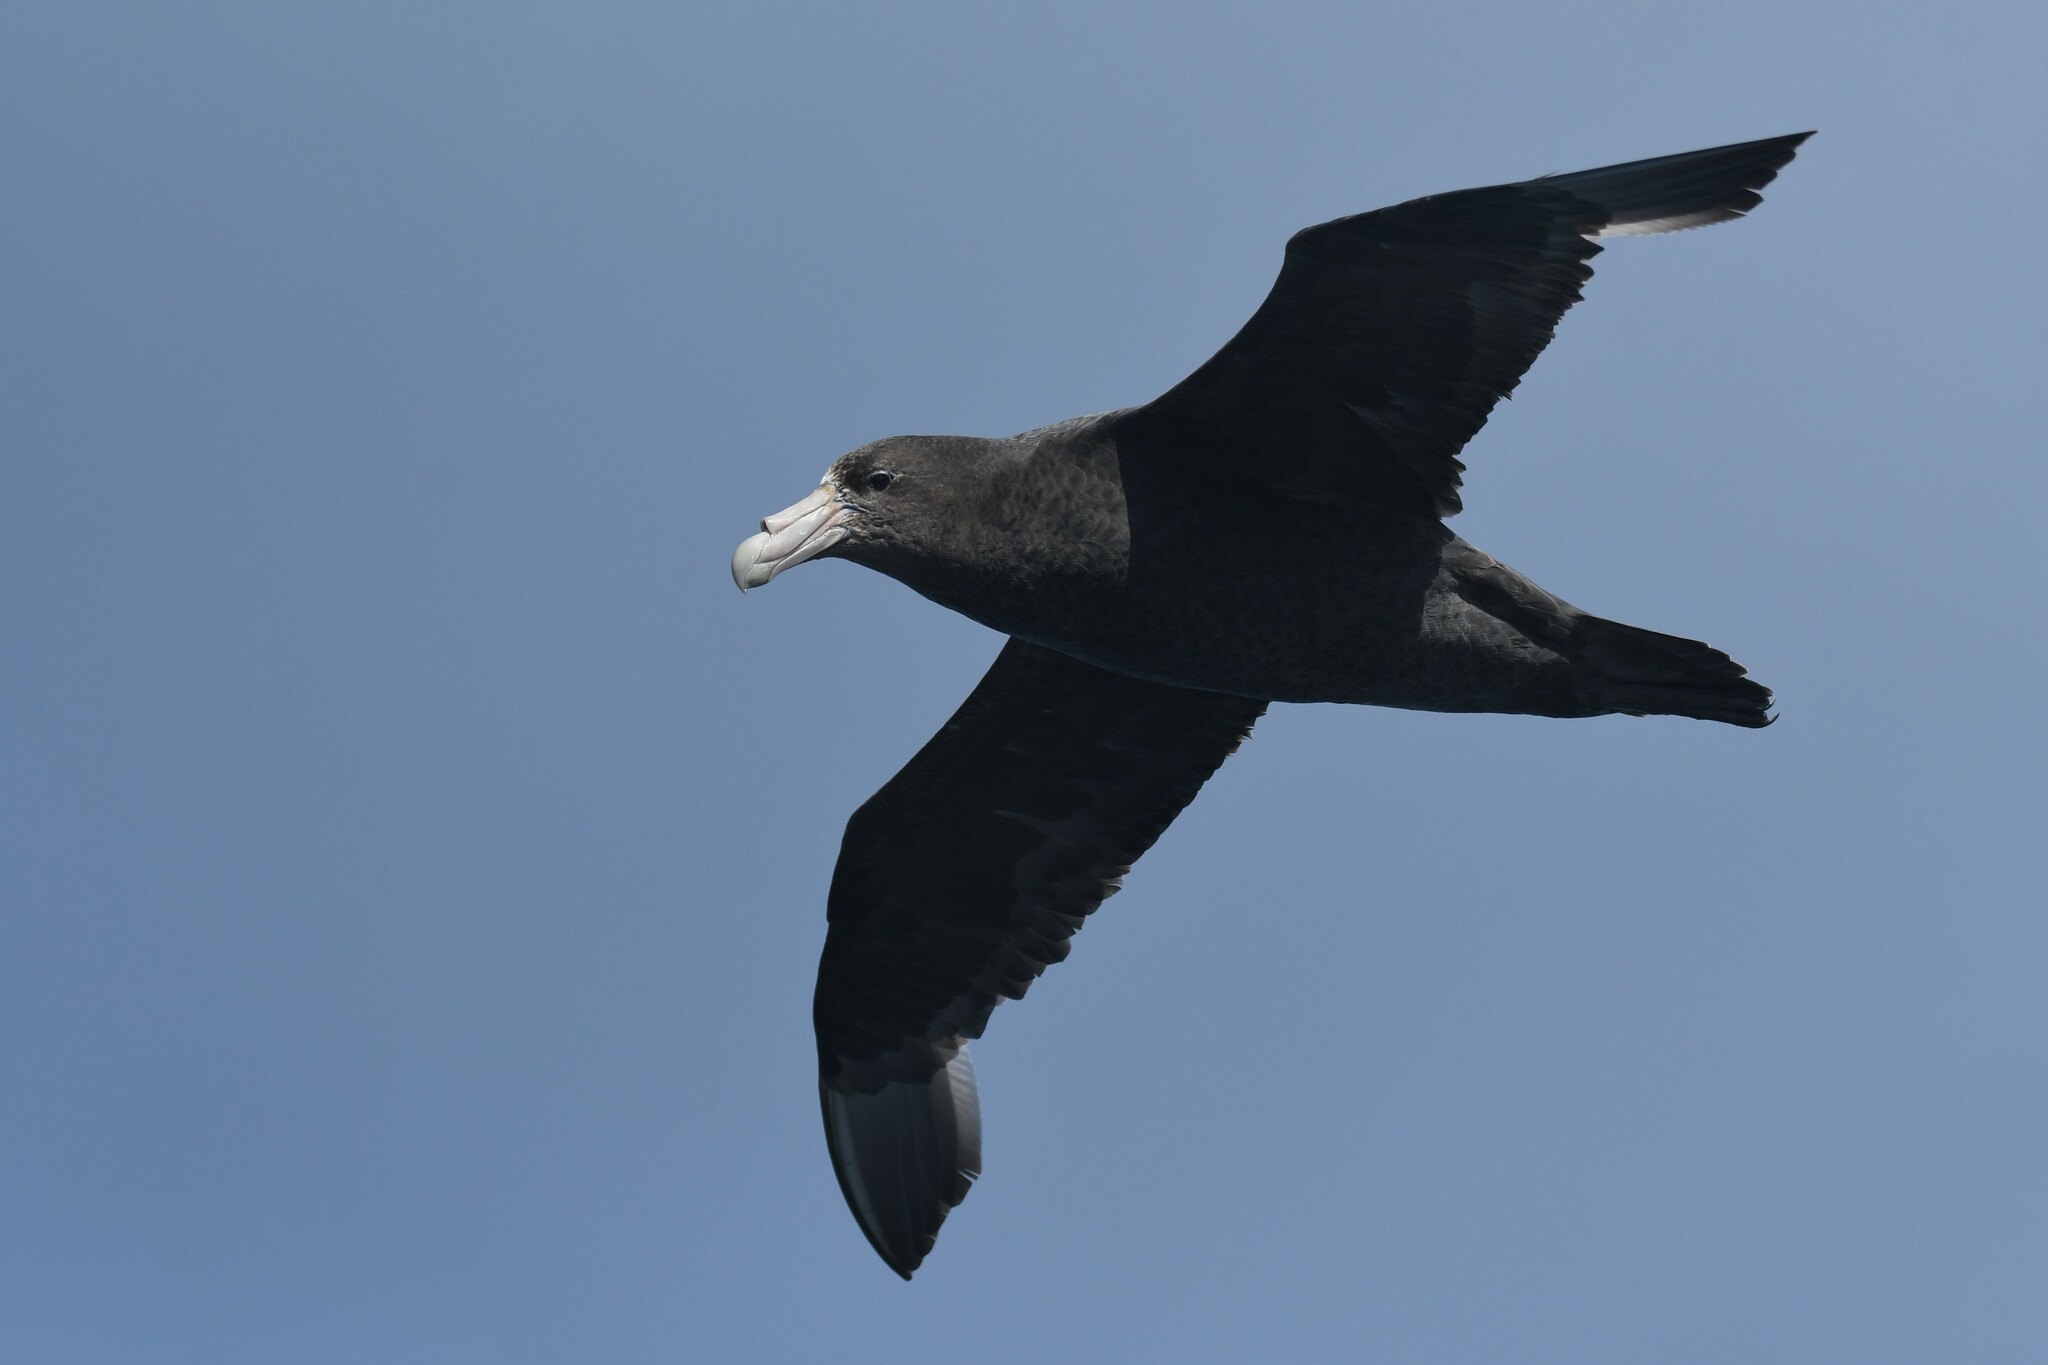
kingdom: Animalia
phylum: Chordata
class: Aves
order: Procellariiformes
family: Procellariidae
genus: Macronectes
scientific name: Macronectes giganteus
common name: Southern giant petrel
